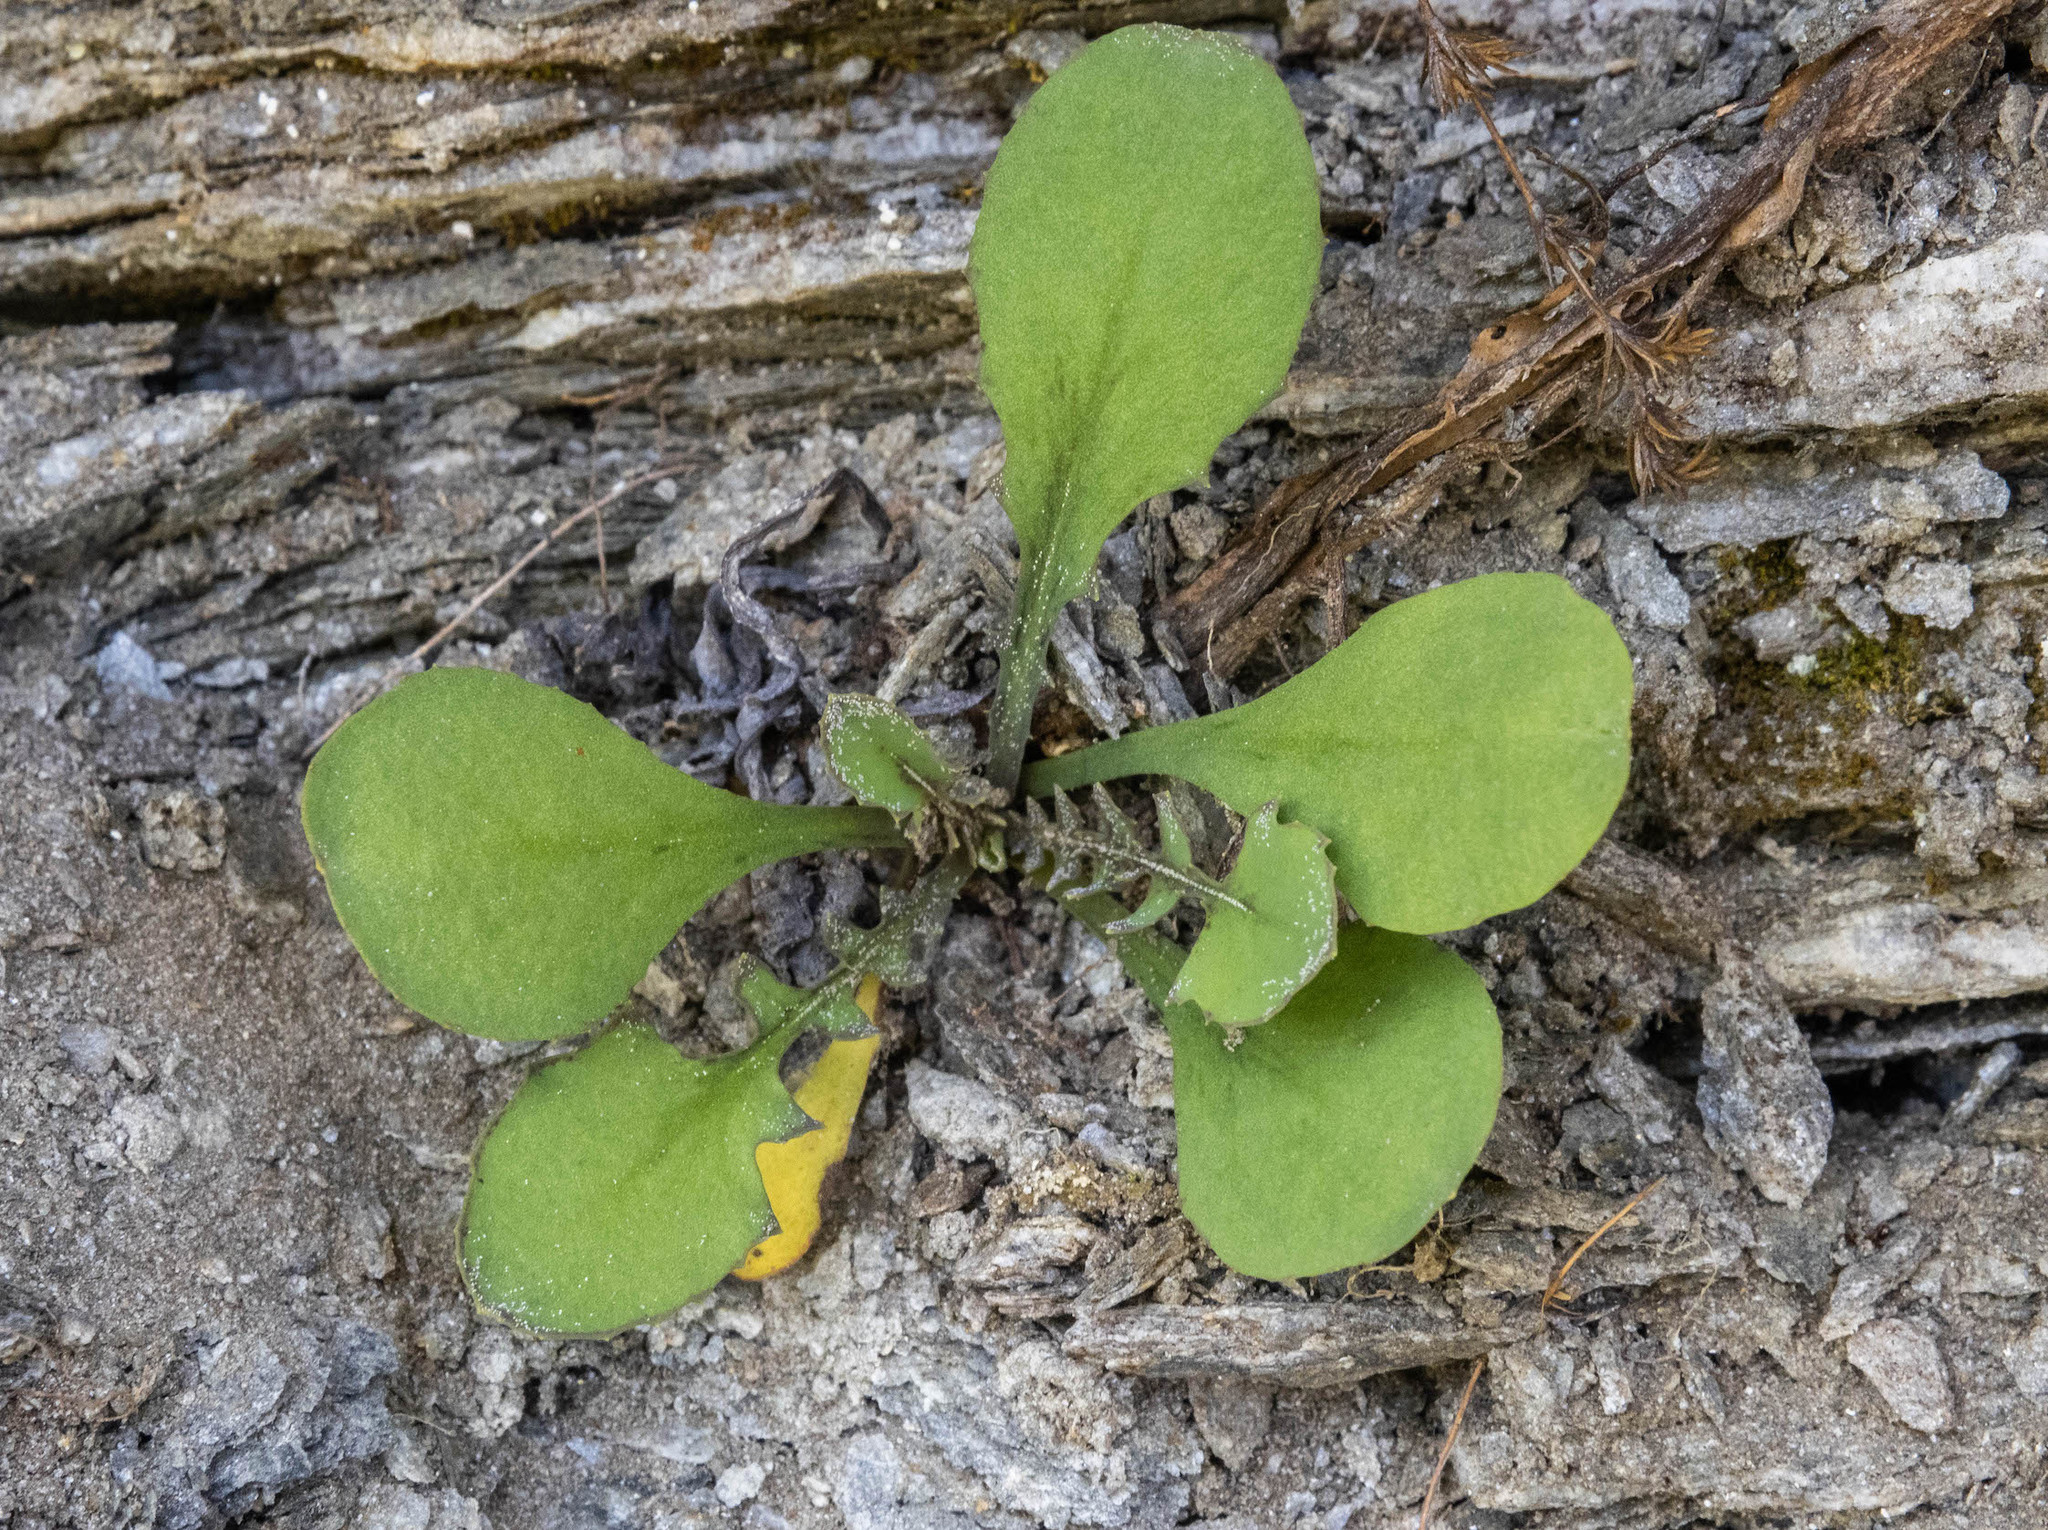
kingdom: Plantae
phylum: Tracheophyta
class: Magnoliopsida
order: Asterales
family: Asteraceae
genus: Sonchus
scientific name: Sonchus novae-zelandiae
